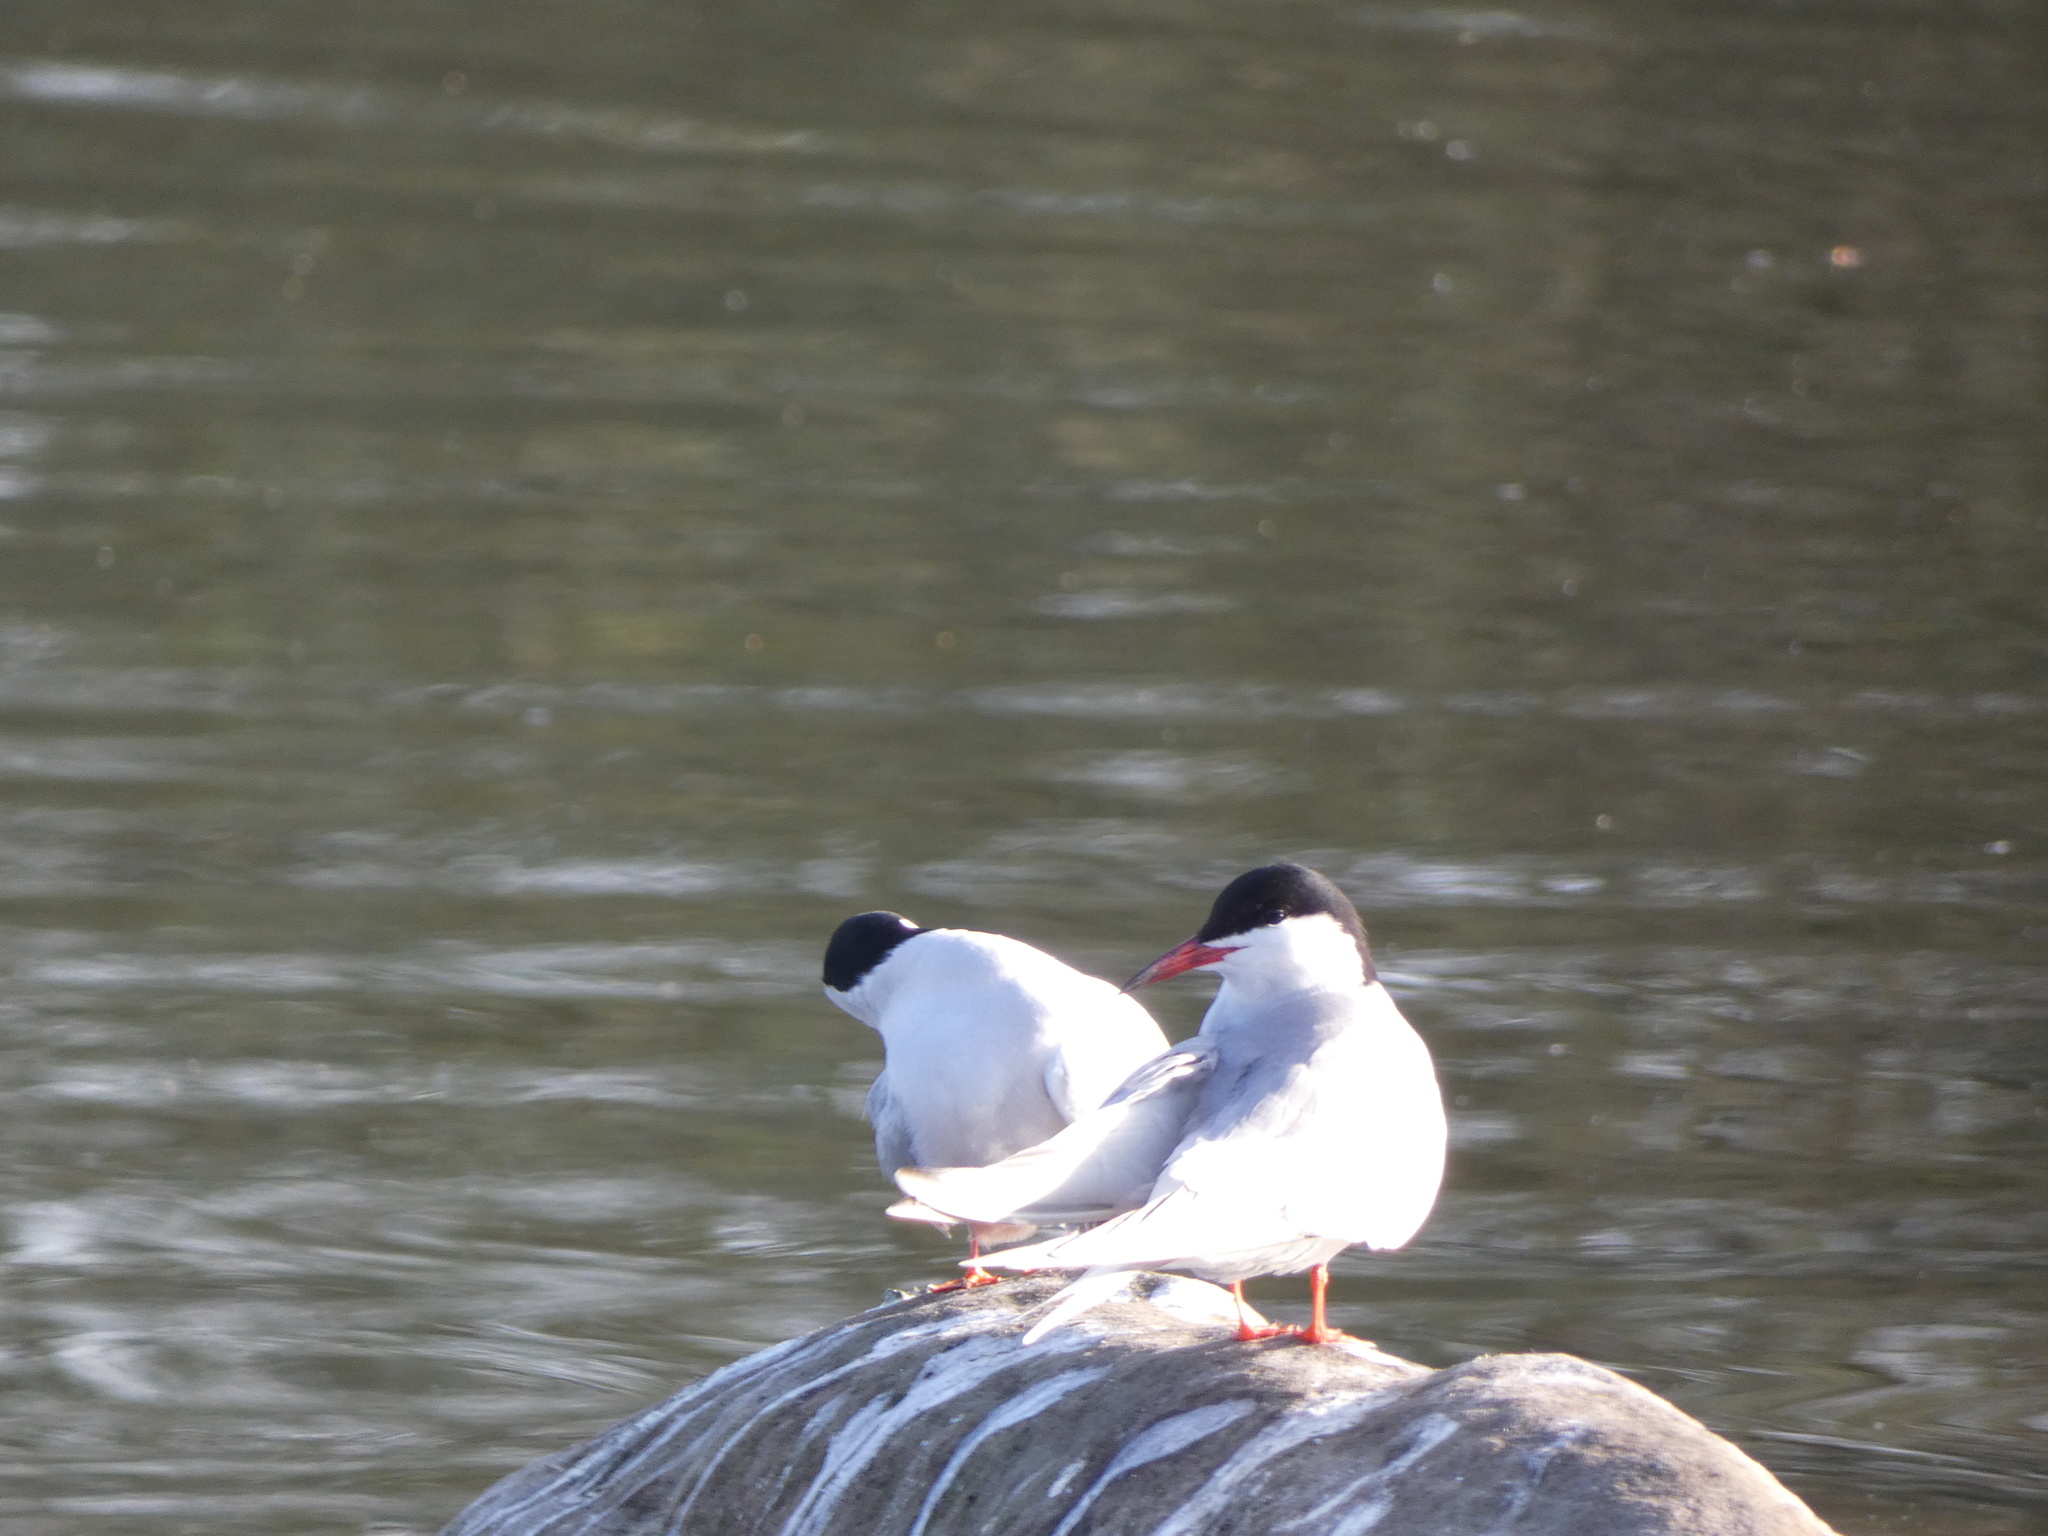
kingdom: Animalia
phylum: Chordata
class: Aves
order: Charadriiformes
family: Laridae
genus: Sterna
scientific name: Sterna hirundo
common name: Common tern
